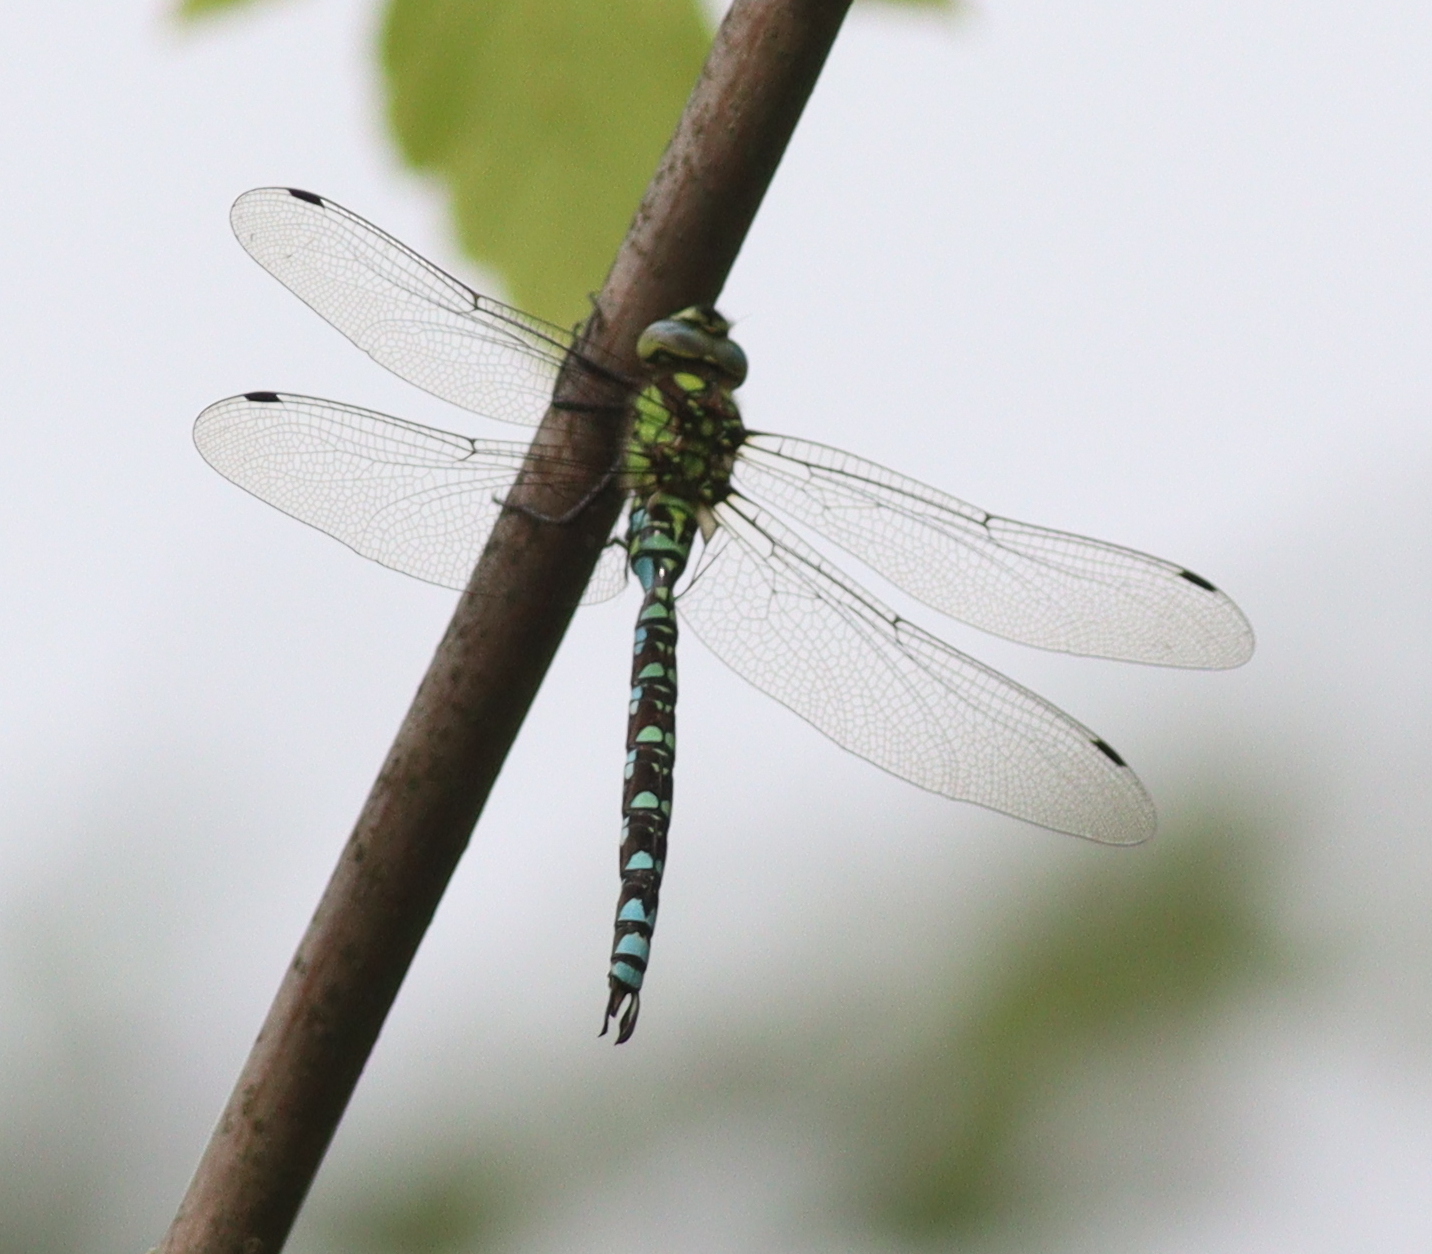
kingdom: Animalia
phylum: Arthropoda
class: Insecta
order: Odonata
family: Aeshnidae
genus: Aeshna
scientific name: Aeshna cyanea
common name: Southern hawker
